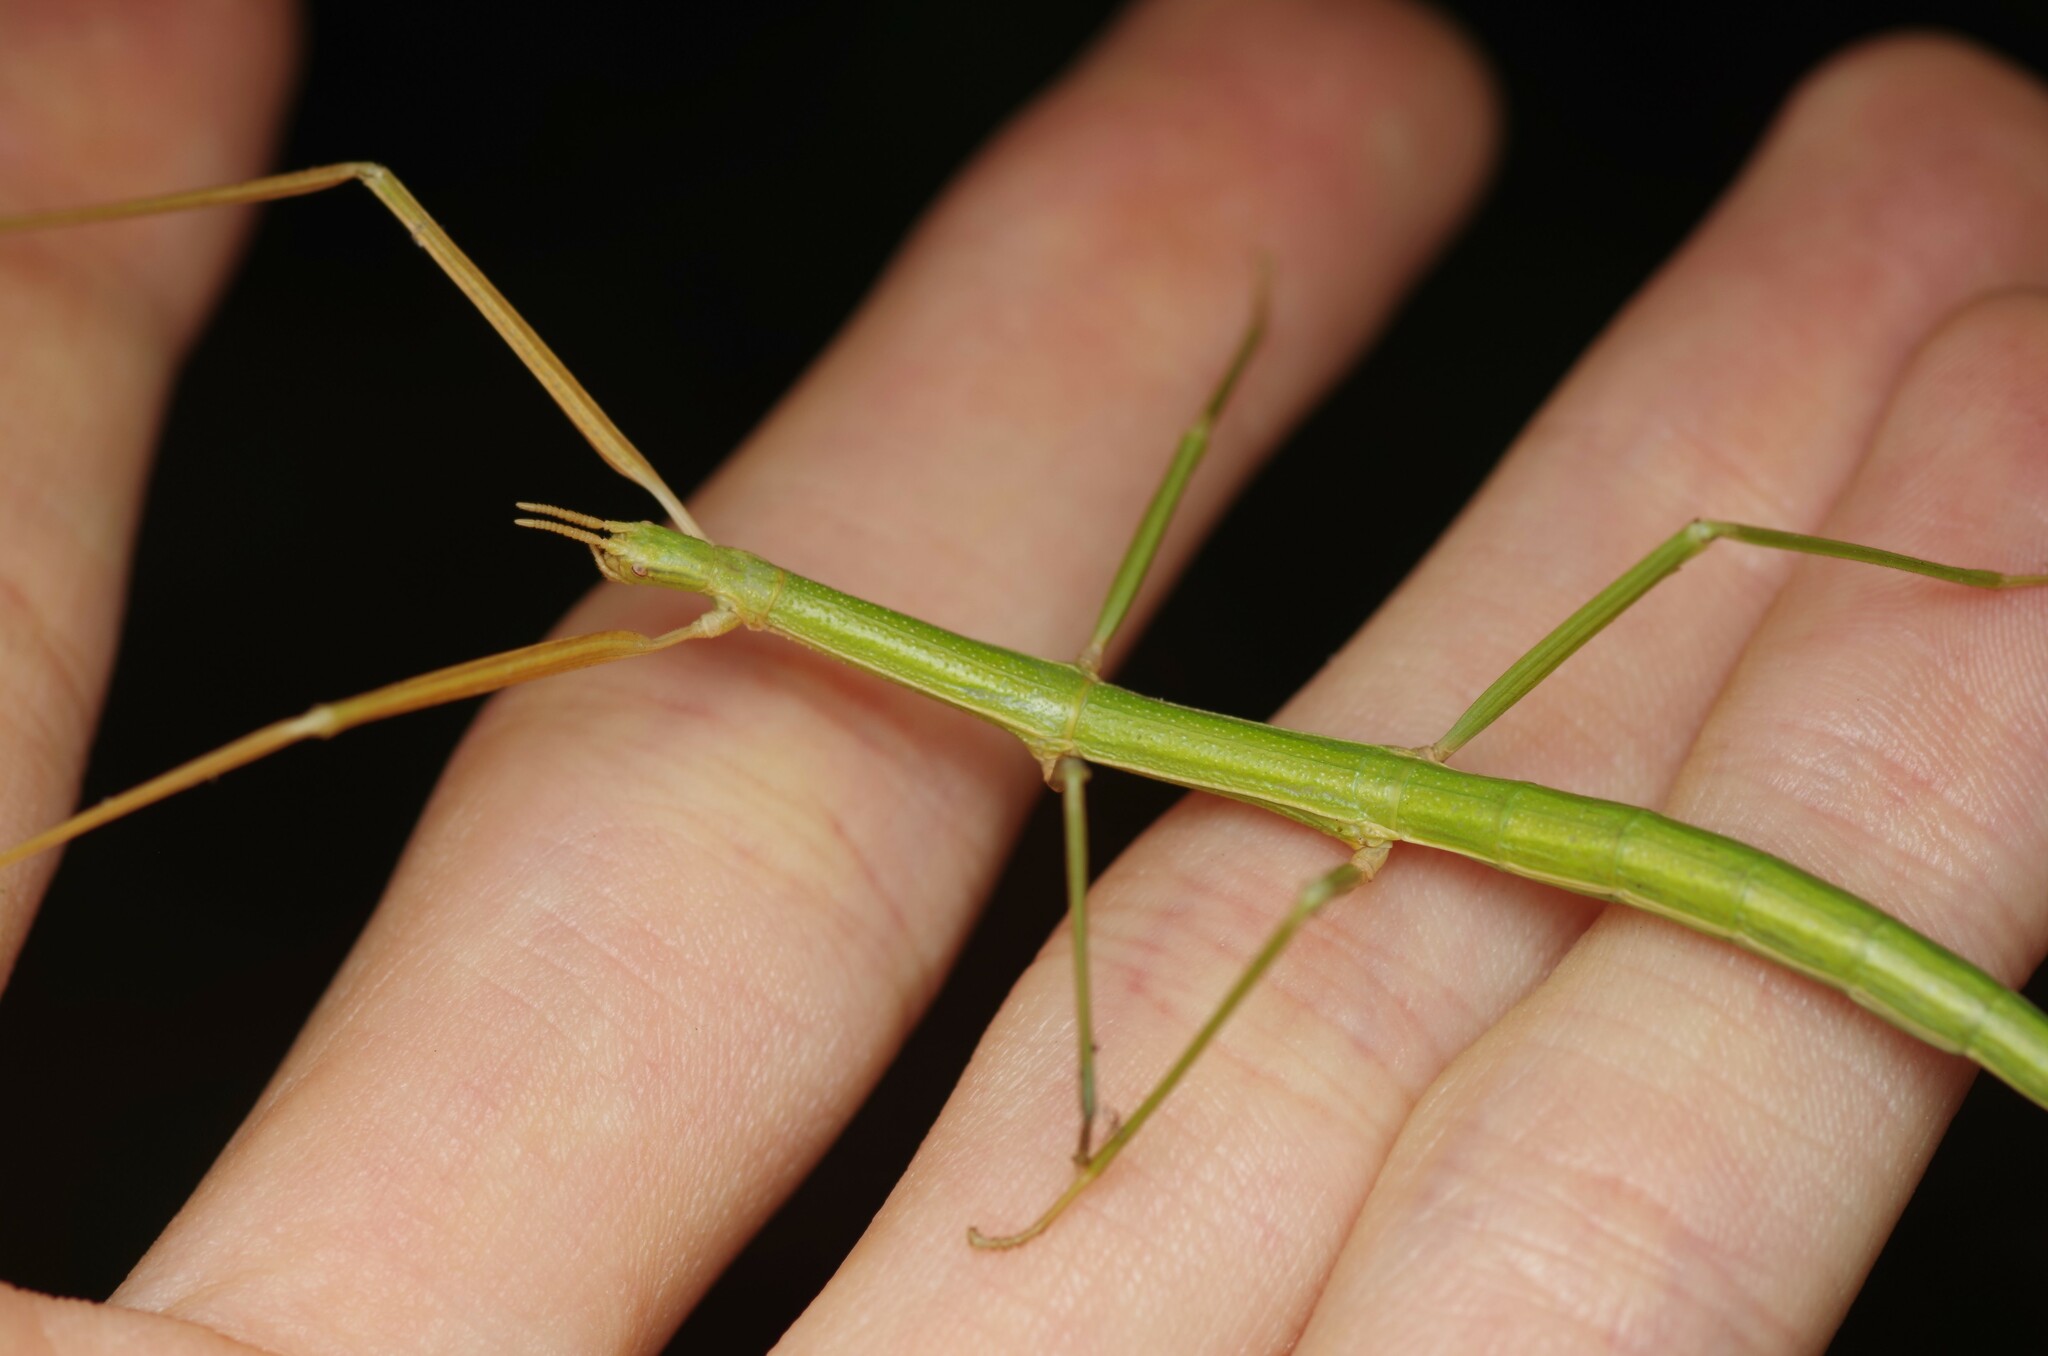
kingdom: Animalia
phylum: Arthropoda
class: Insecta
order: Phasmida
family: Bacillidae
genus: Clonopsis
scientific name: Clonopsis gallica
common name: French stick insect
